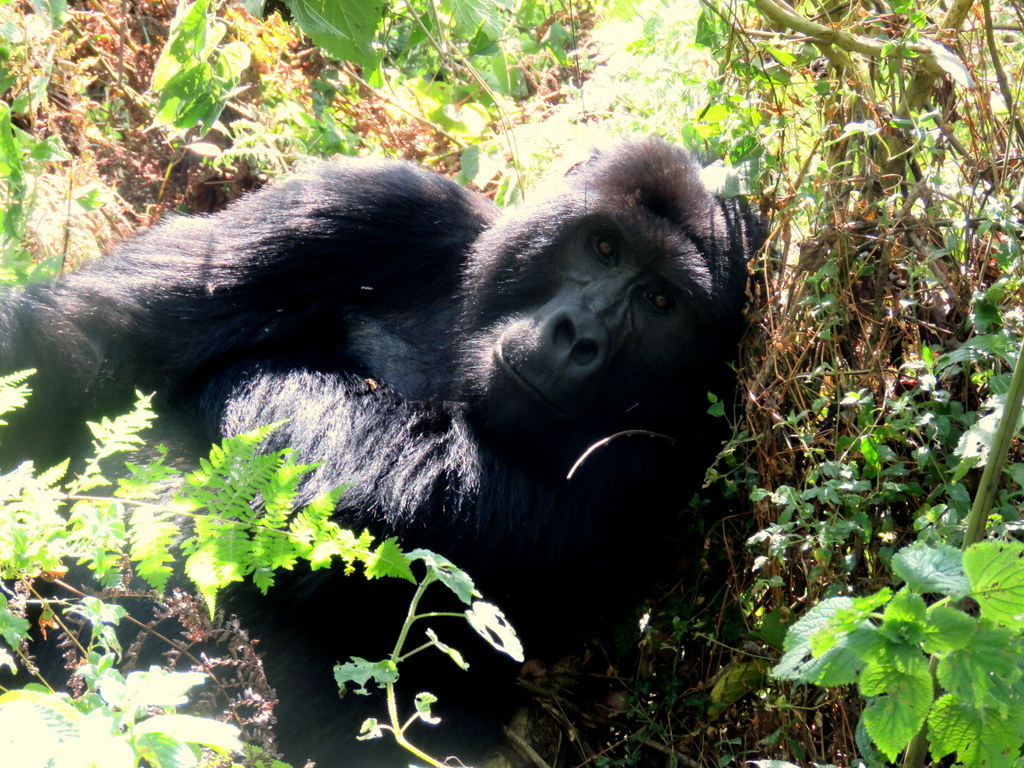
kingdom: Animalia
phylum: Chordata
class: Mammalia
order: Primates
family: Hominidae
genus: Gorilla
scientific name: Gorilla beringei
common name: Eastern gorilla
